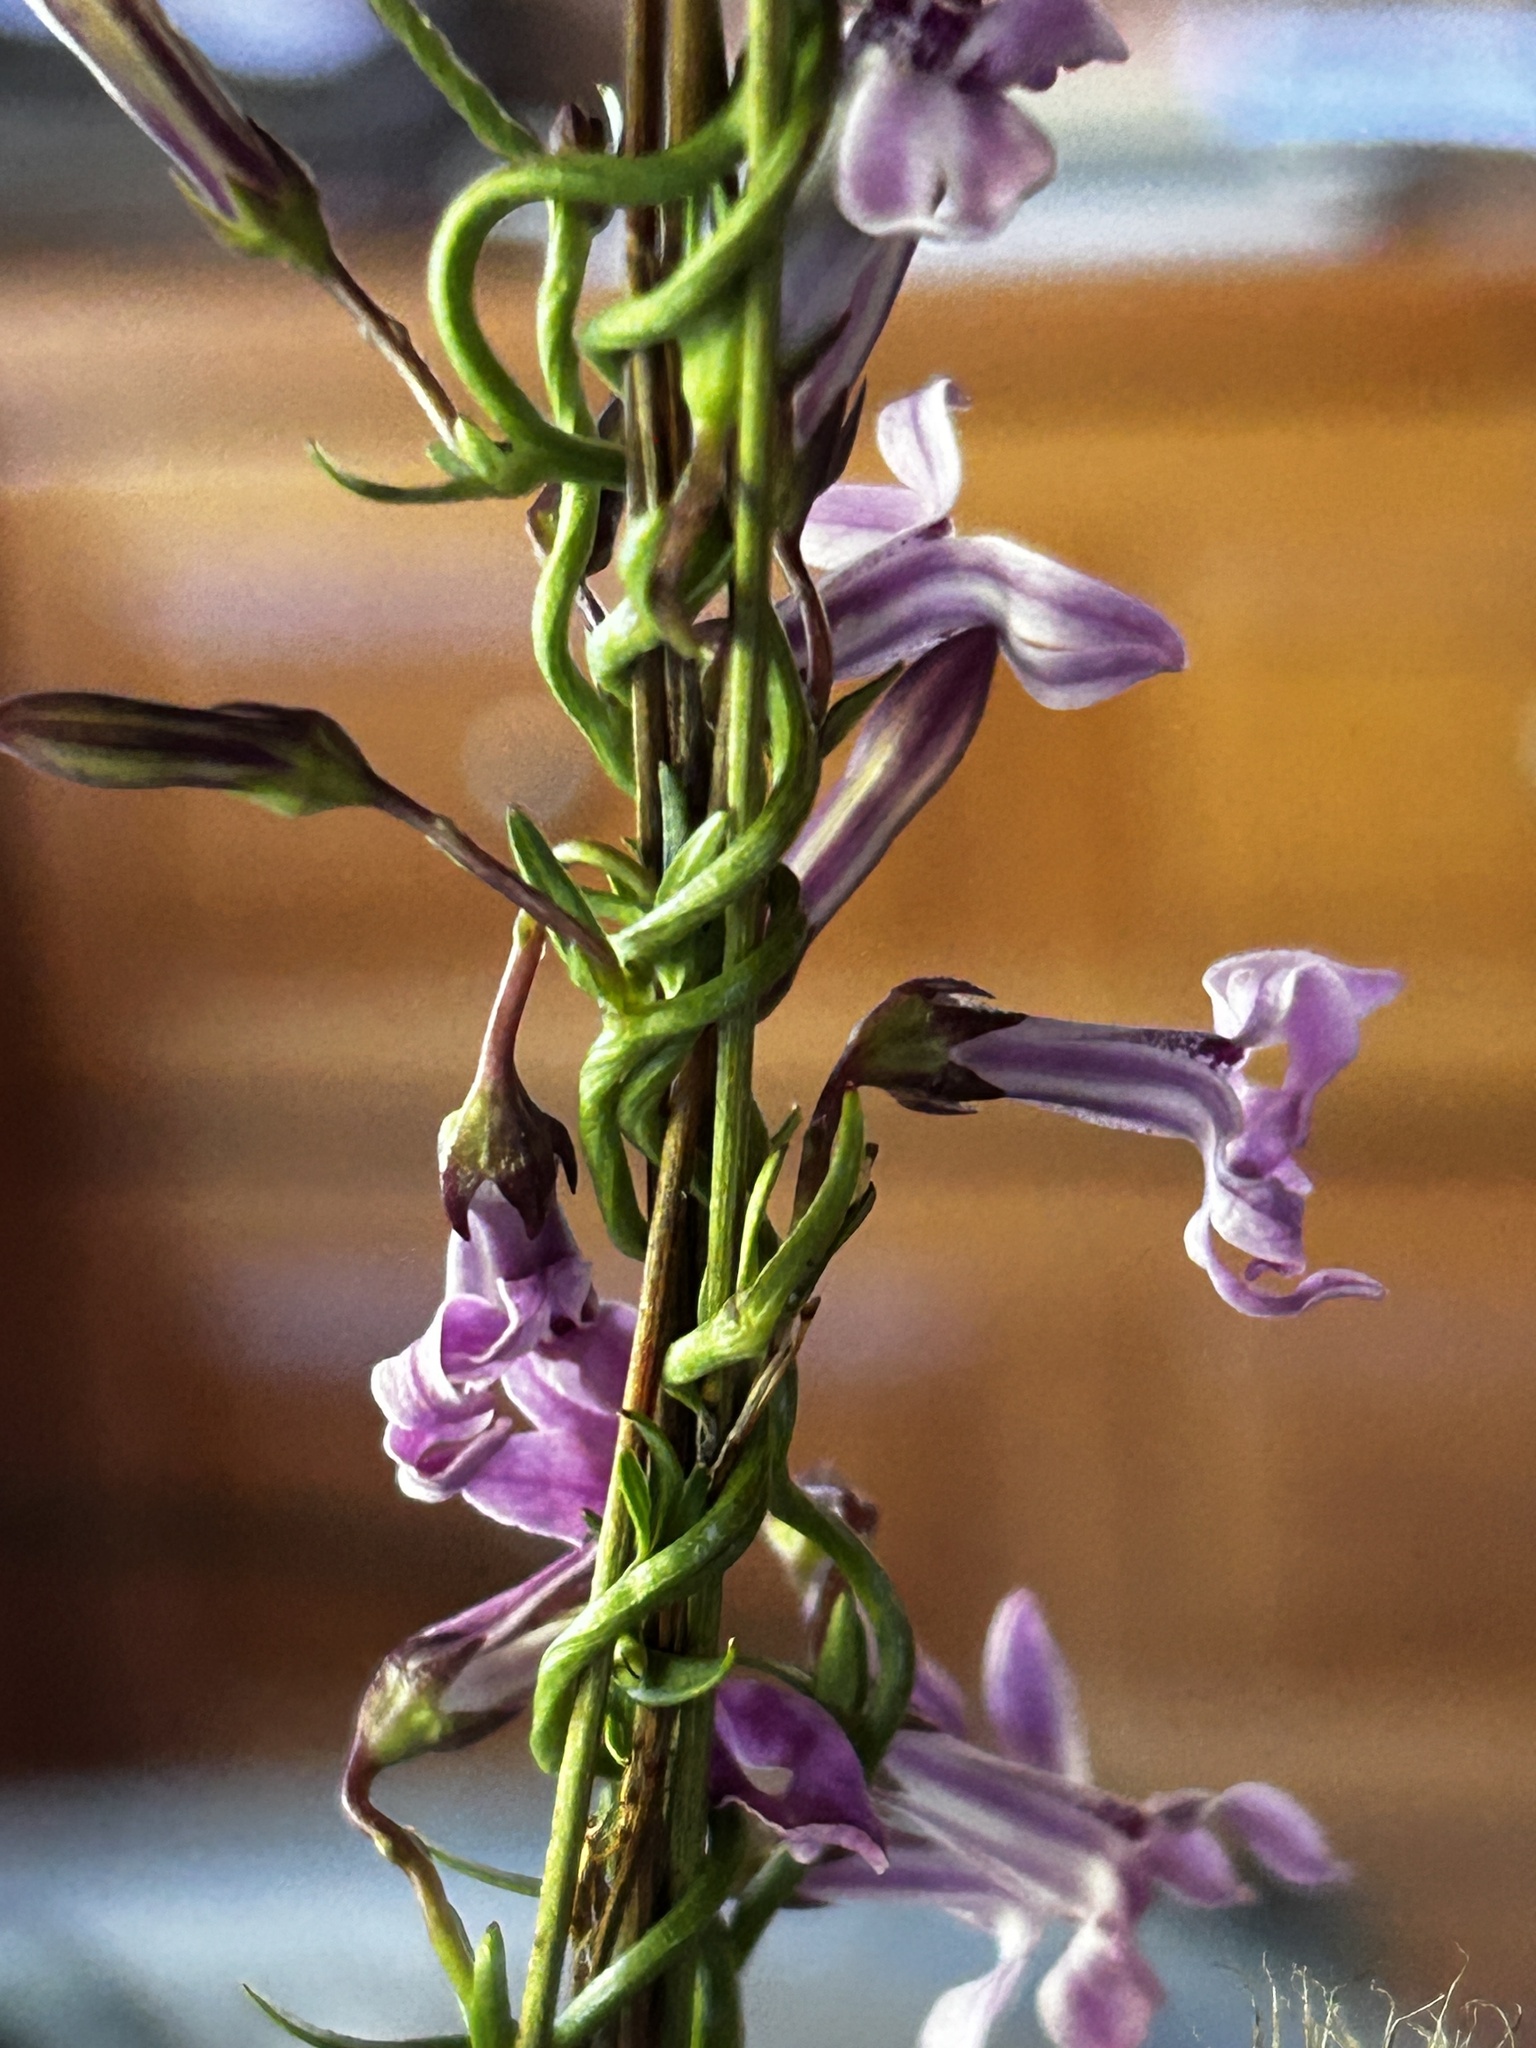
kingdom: Plantae
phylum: Tracheophyta
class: Magnoliopsida
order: Asterales
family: Campanulaceae
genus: Cyphia
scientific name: Cyphia digitata
